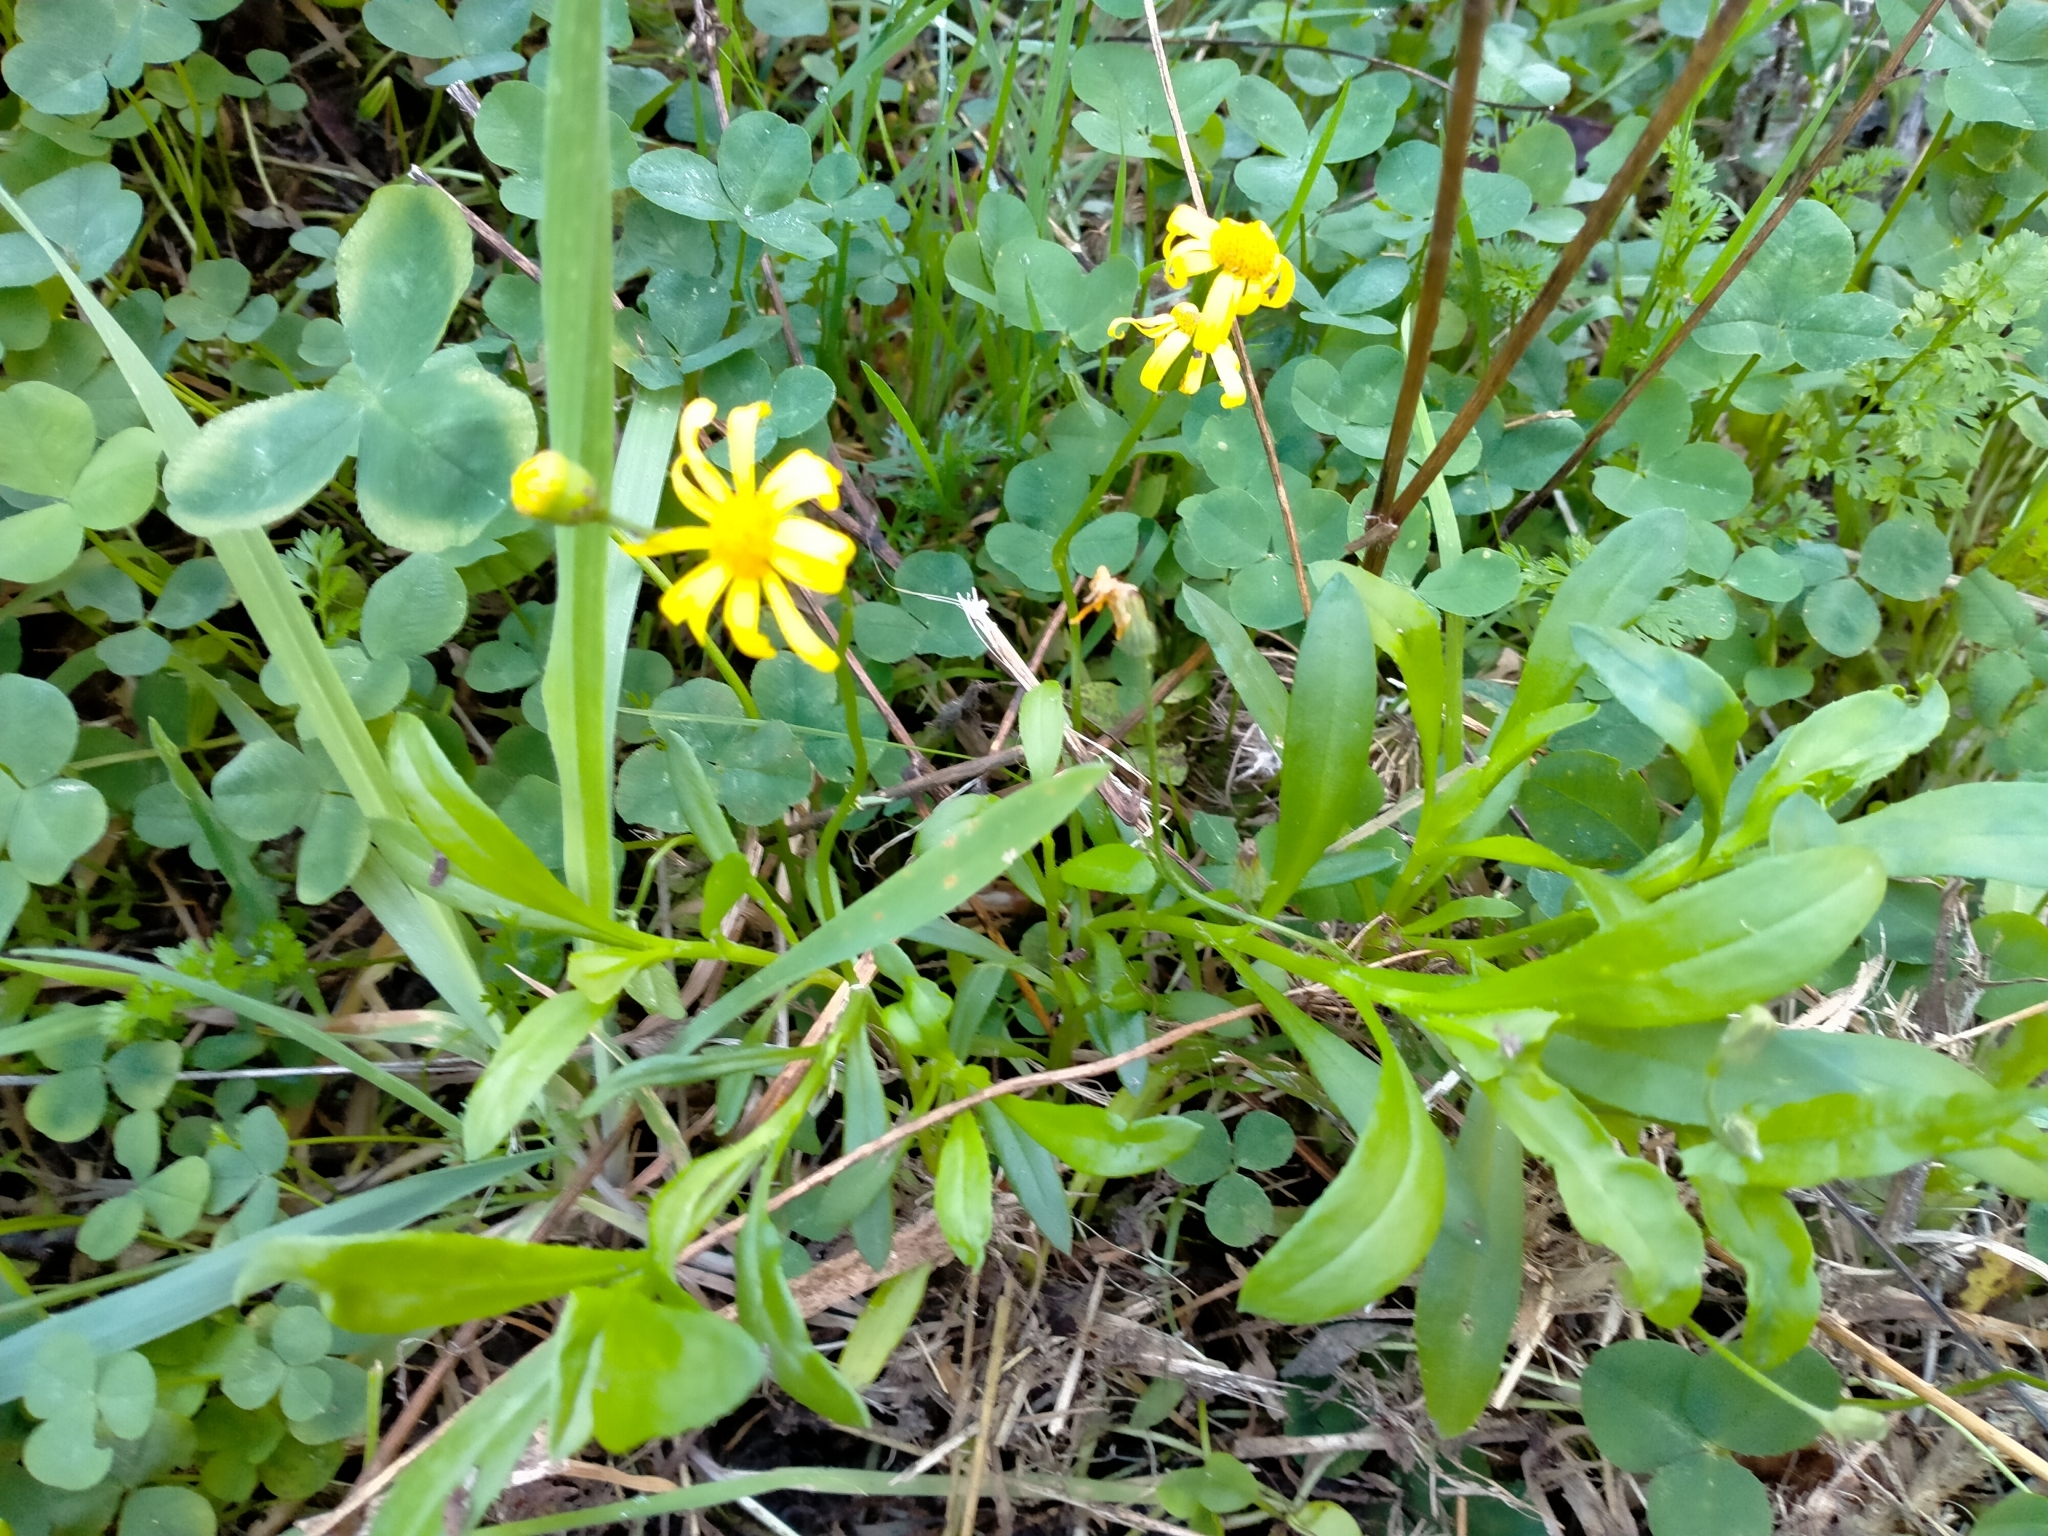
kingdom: Plantae
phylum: Tracheophyta
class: Magnoliopsida
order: Asterales
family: Asteraceae
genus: Senecio
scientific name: Senecio skirrhodon
